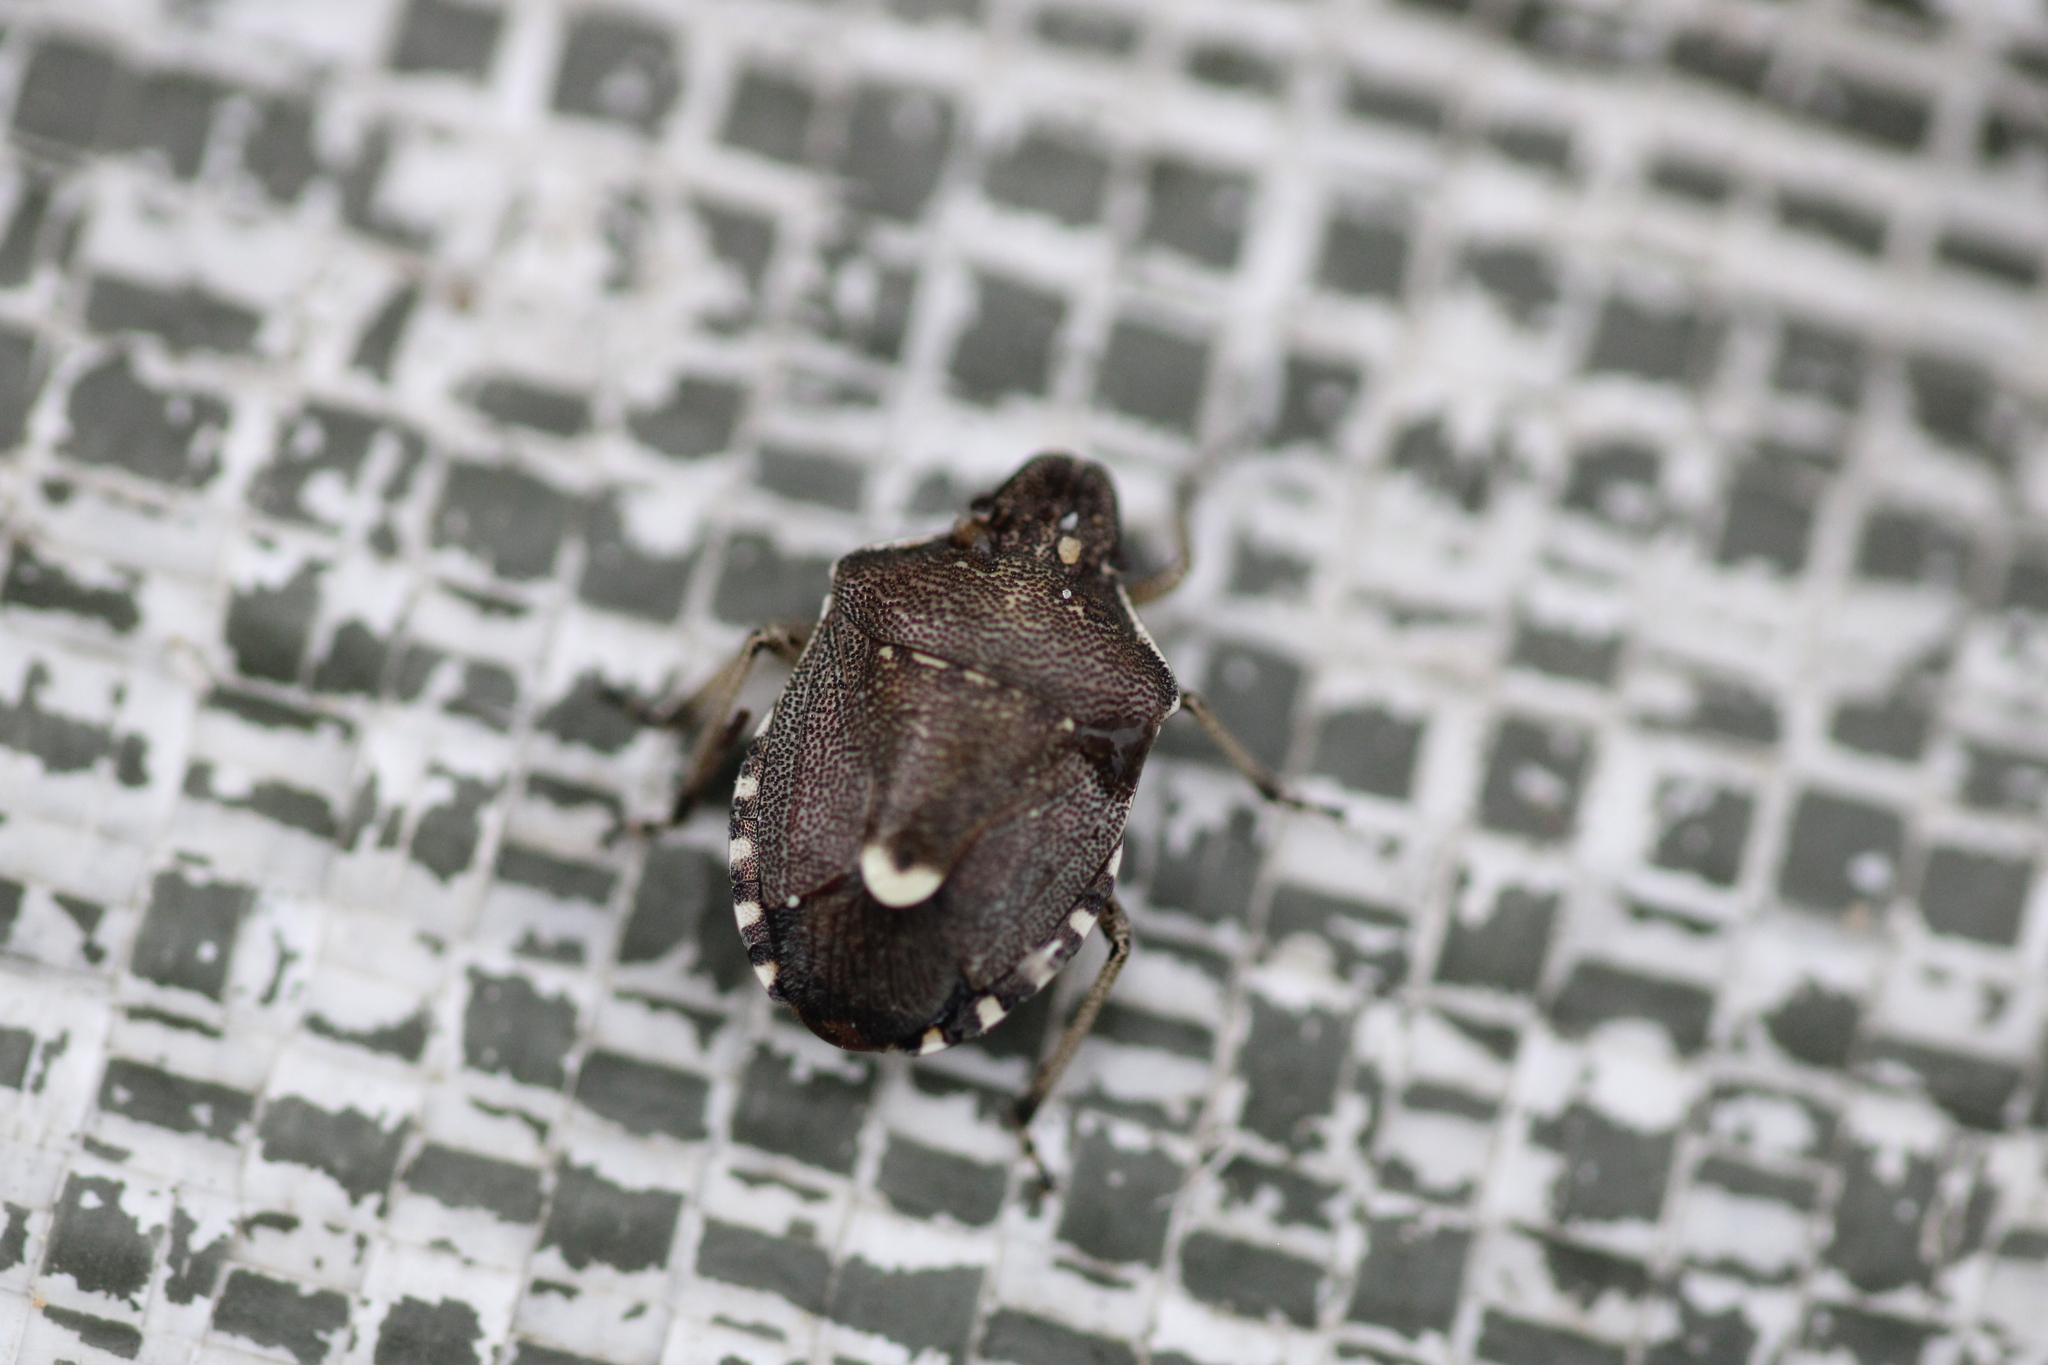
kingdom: Animalia
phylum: Arthropoda
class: Insecta
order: Hemiptera
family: Pentatomidae
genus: Holcostethus
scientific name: Holcostethus sphacelatus
